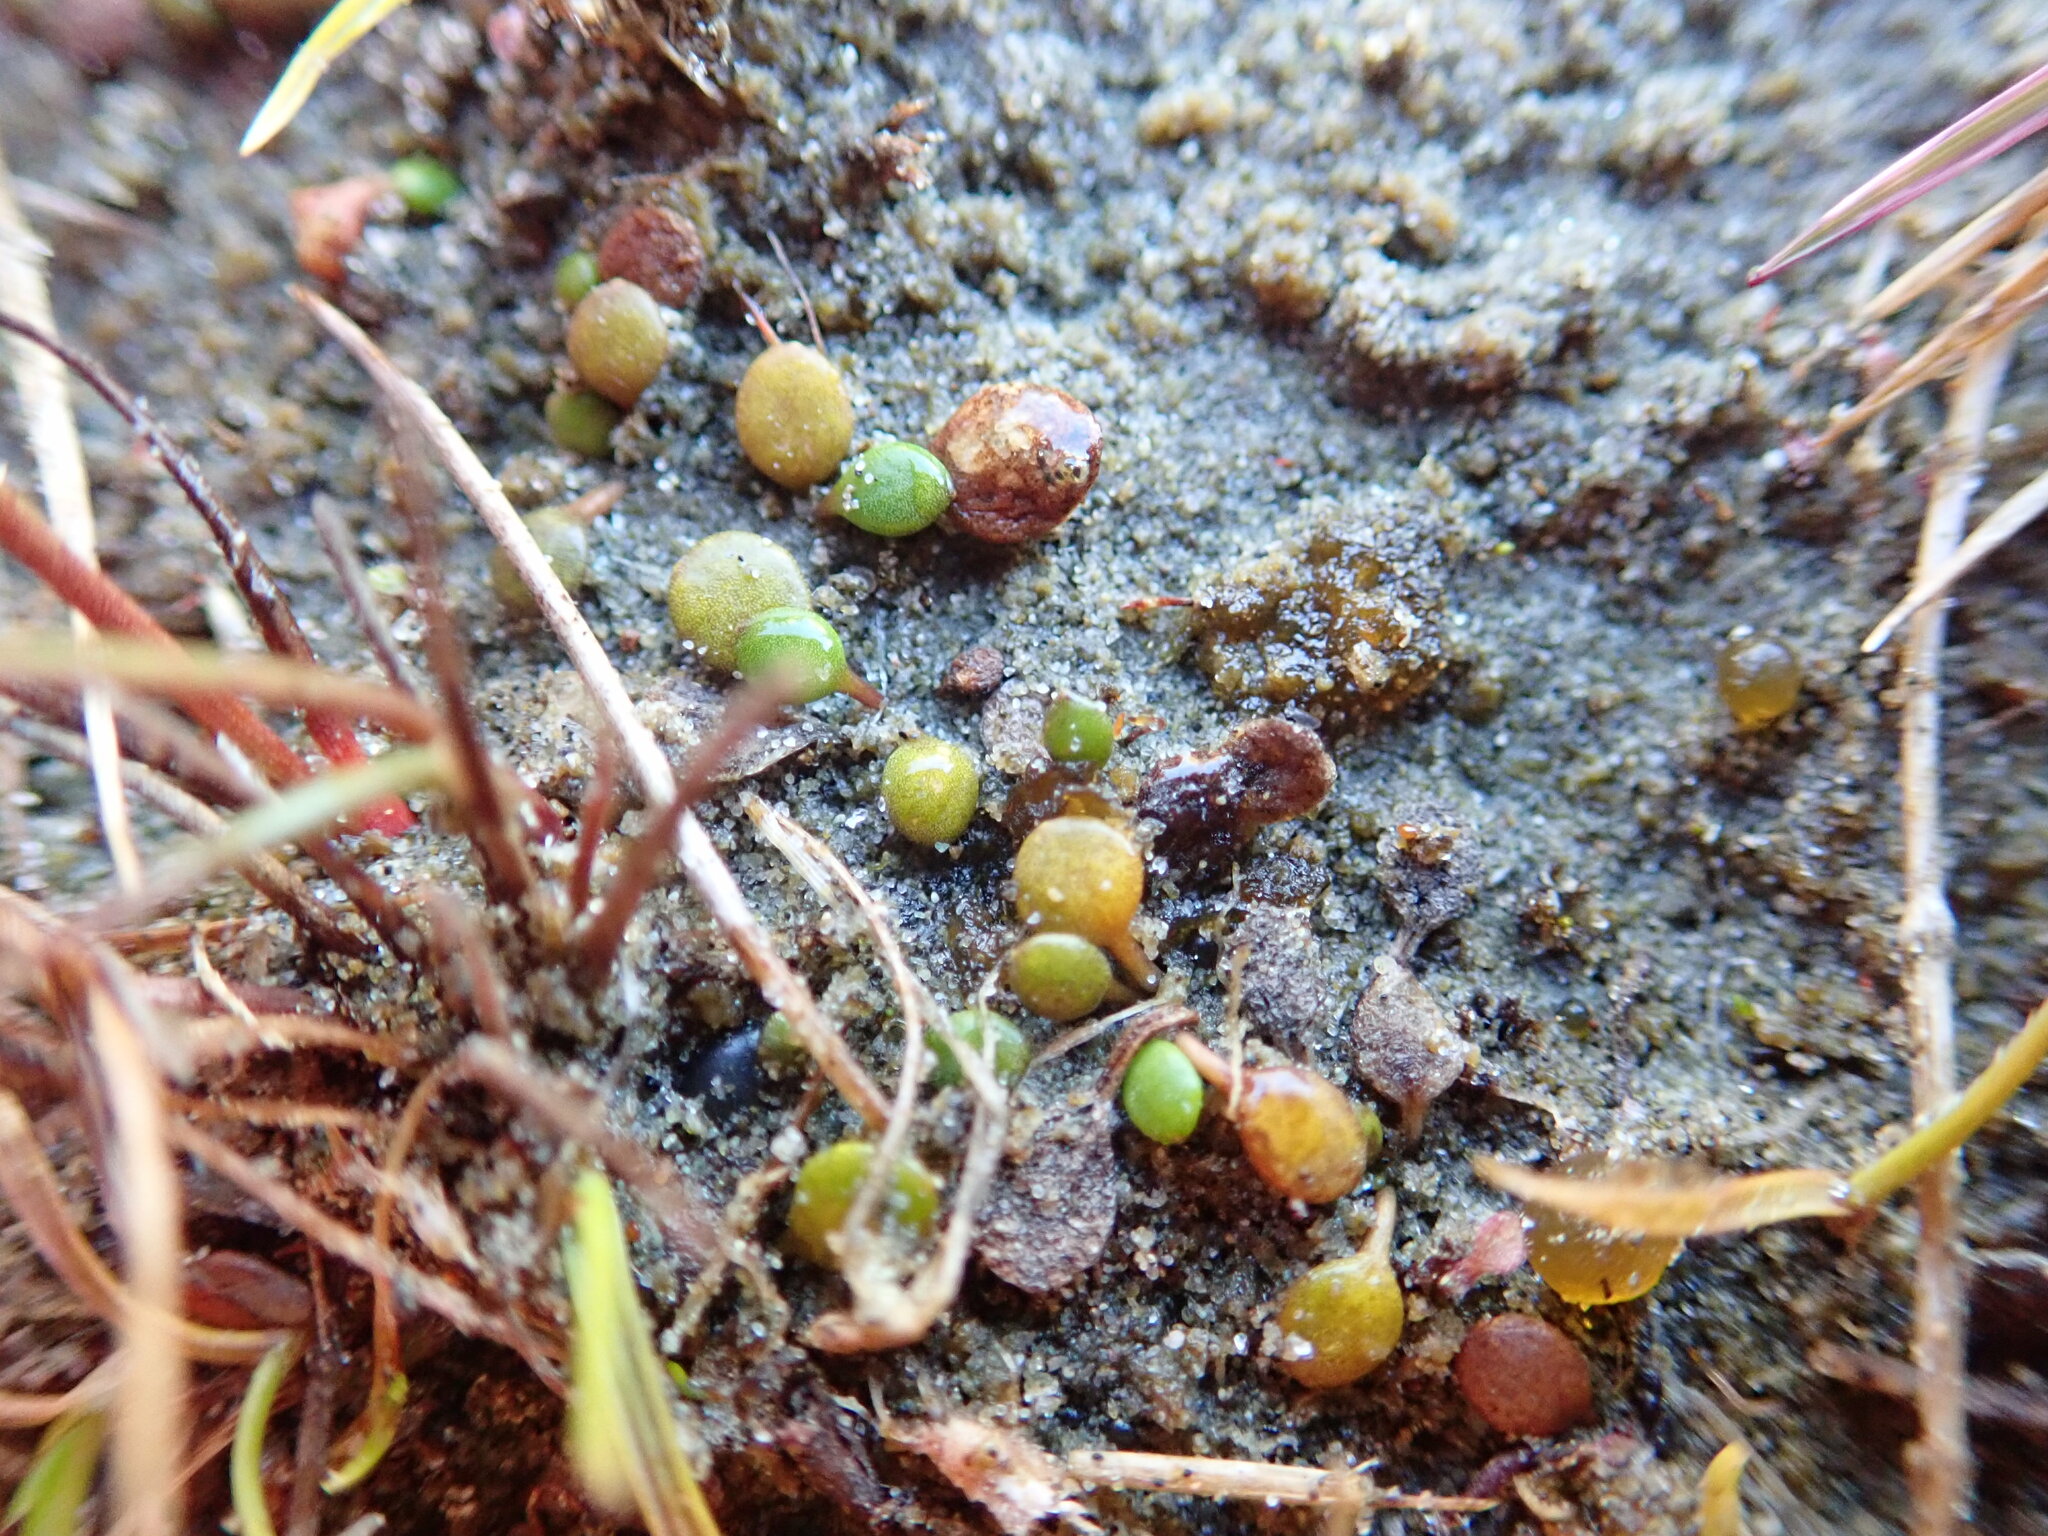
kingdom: Plantae
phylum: Tracheophyta
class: Magnoliopsida
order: Asterales
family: Goodeniaceae
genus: Goodenia
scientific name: Goodenia heenanii
